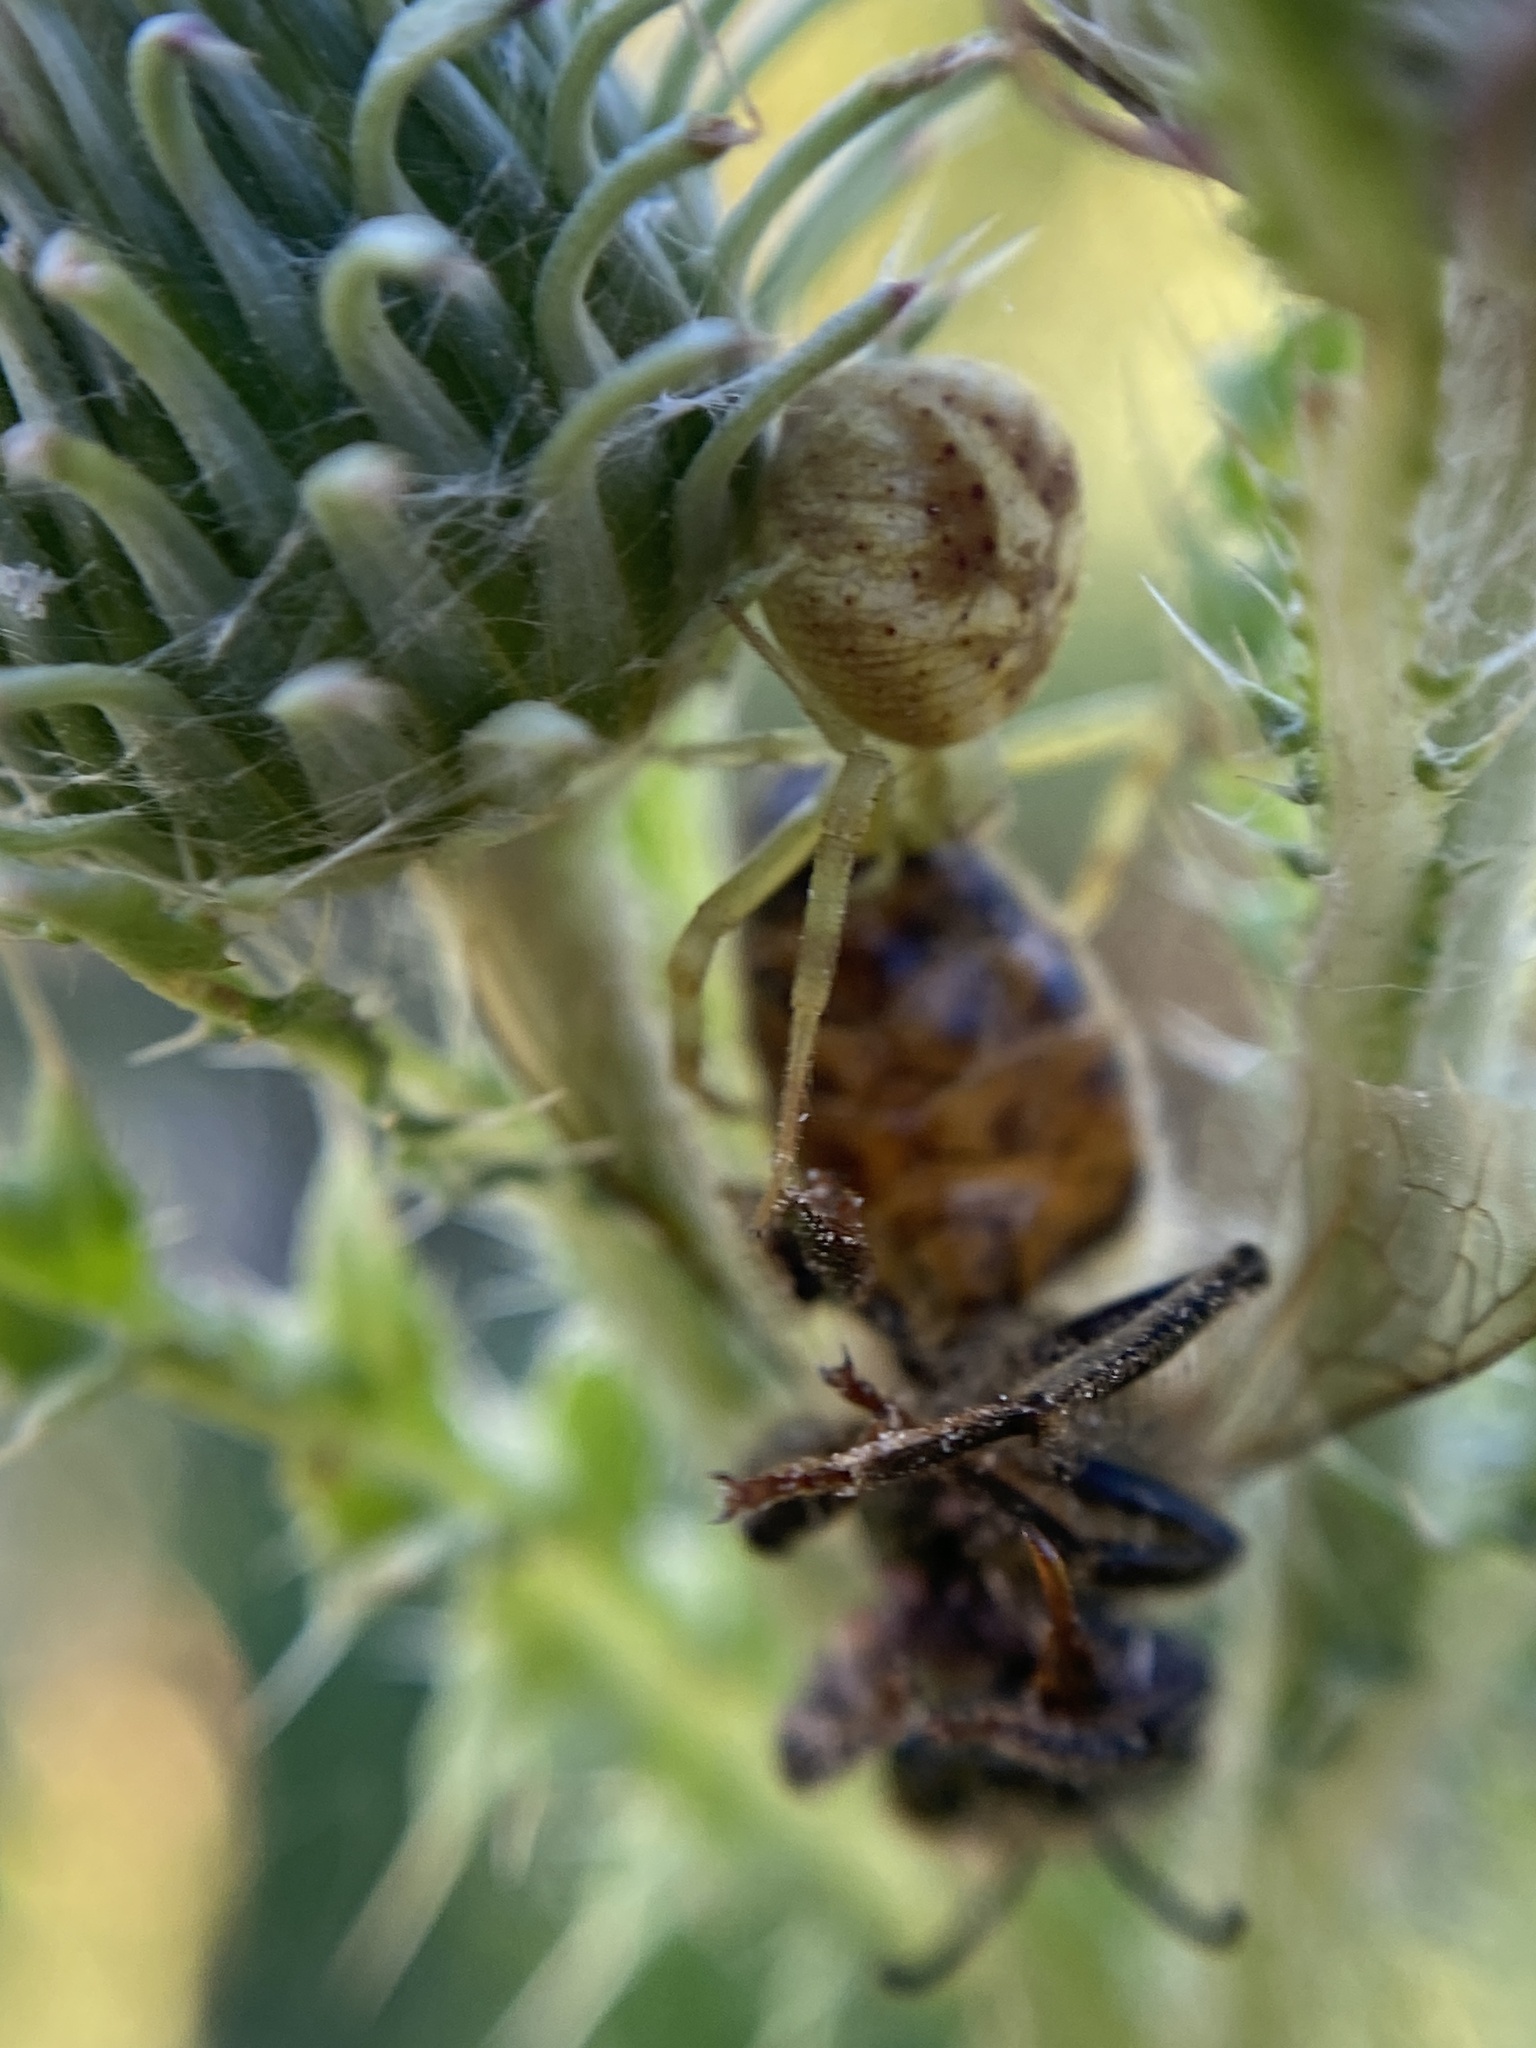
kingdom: Animalia
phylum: Arthropoda
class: Arachnida
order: Araneae
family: Thomisidae
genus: Misumenops
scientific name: Misumenops
